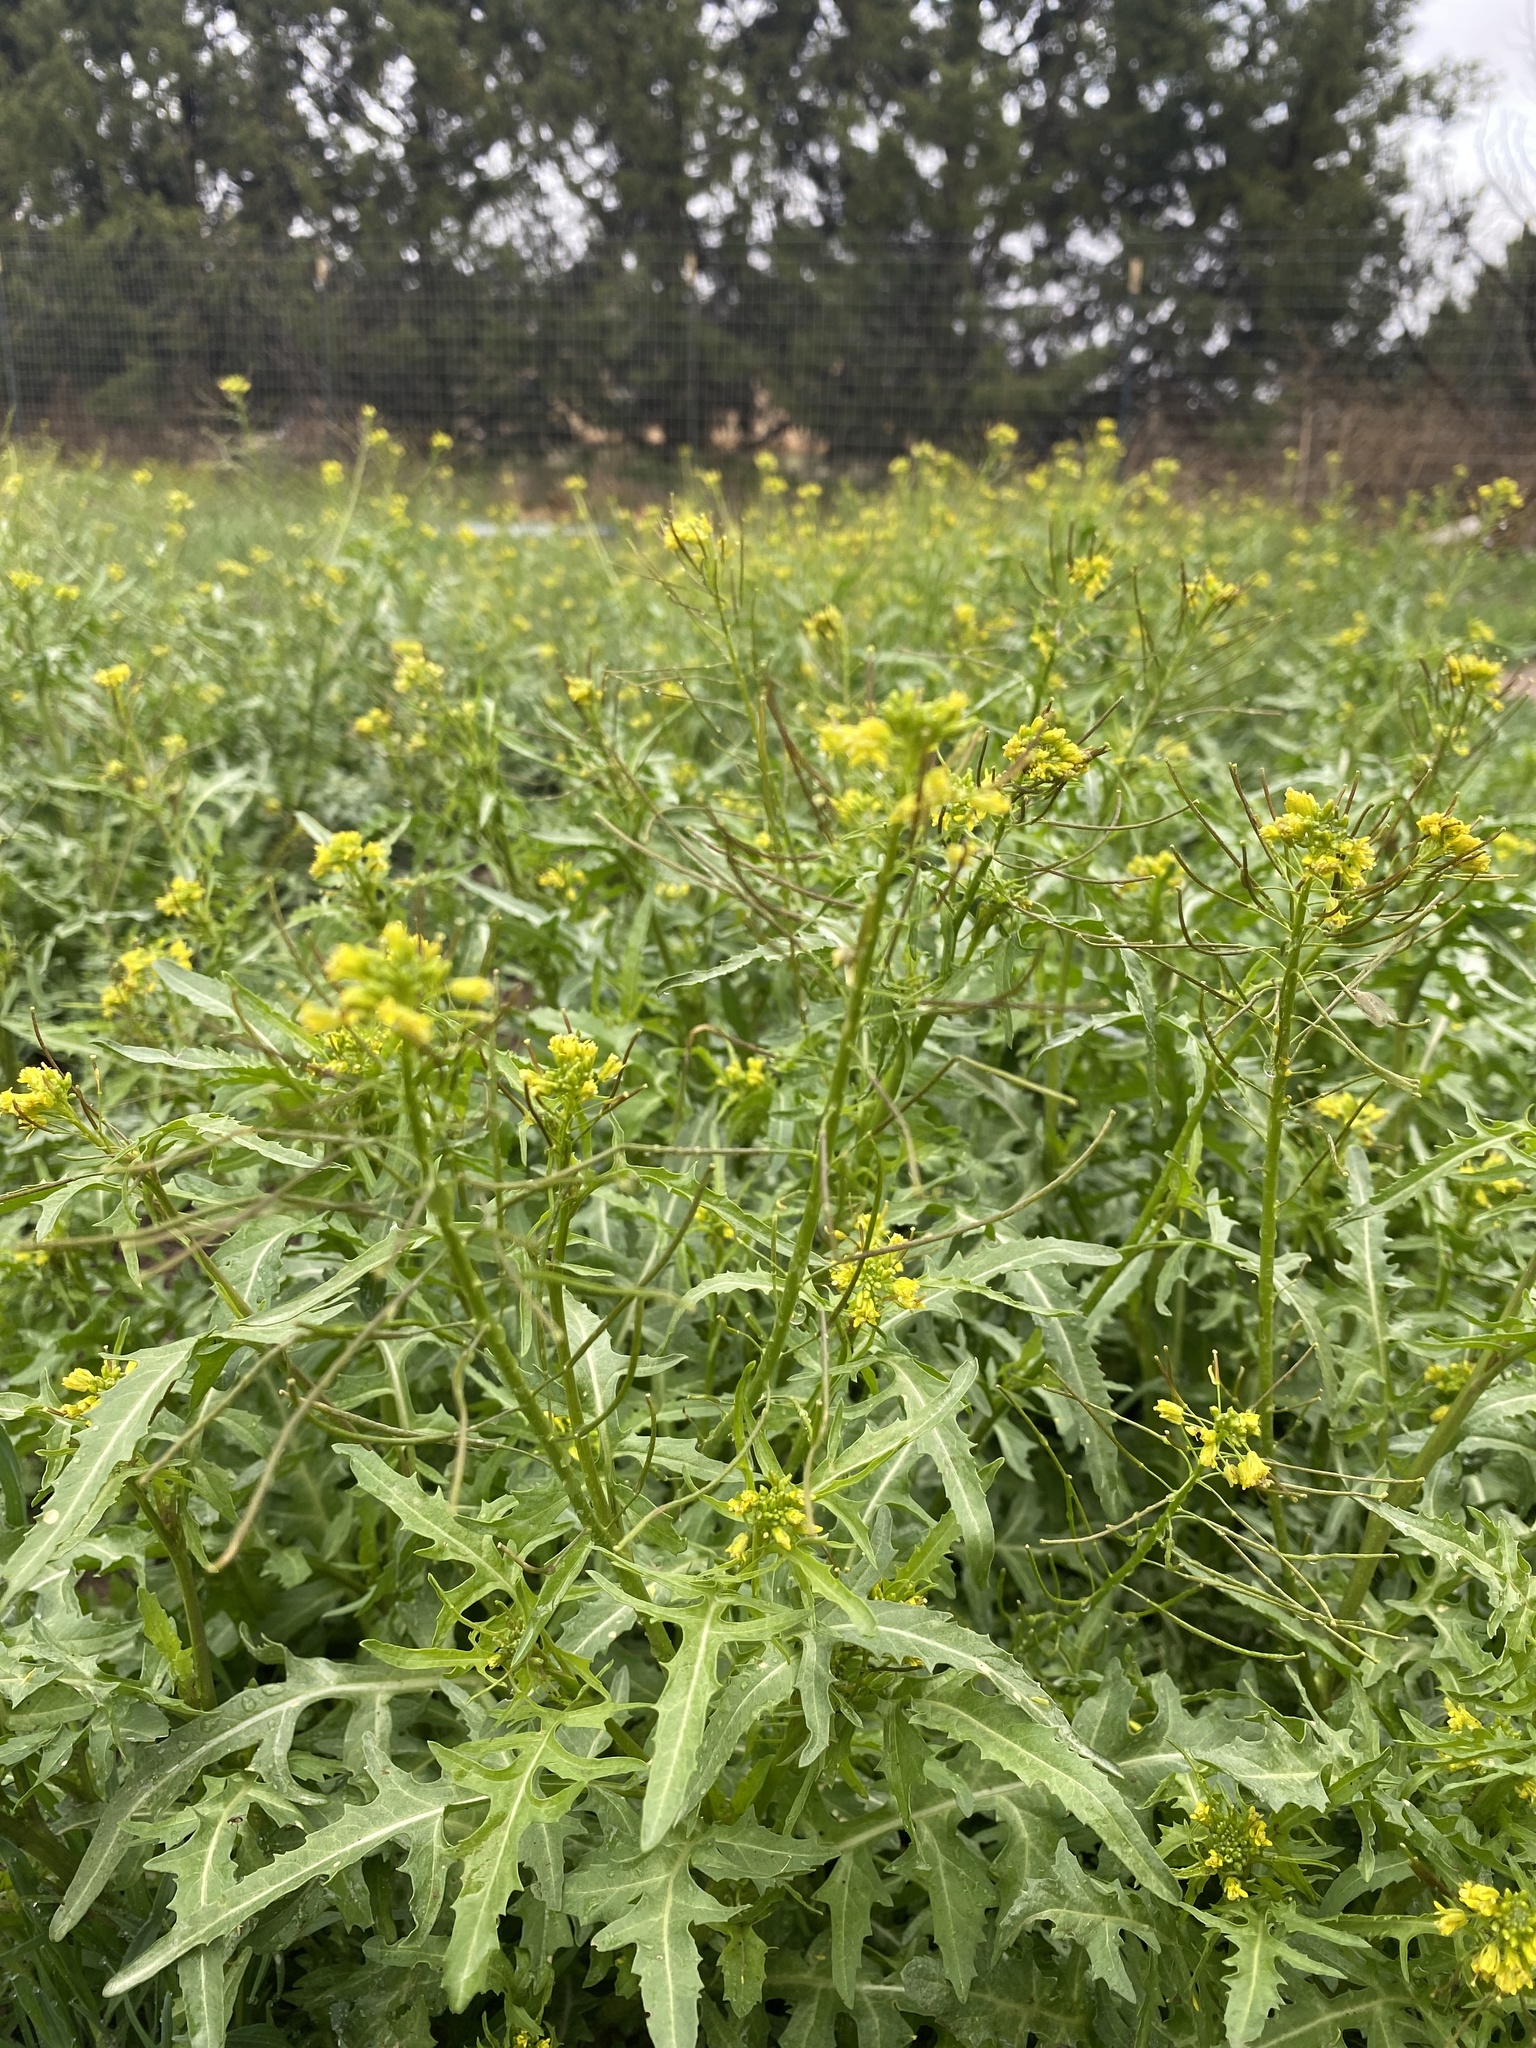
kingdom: Plantae
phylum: Tracheophyta
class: Magnoliopsida
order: Brassicales
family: Brassicaceae
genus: Sisymbrium
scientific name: Sisymbrium irio
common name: London rocket
